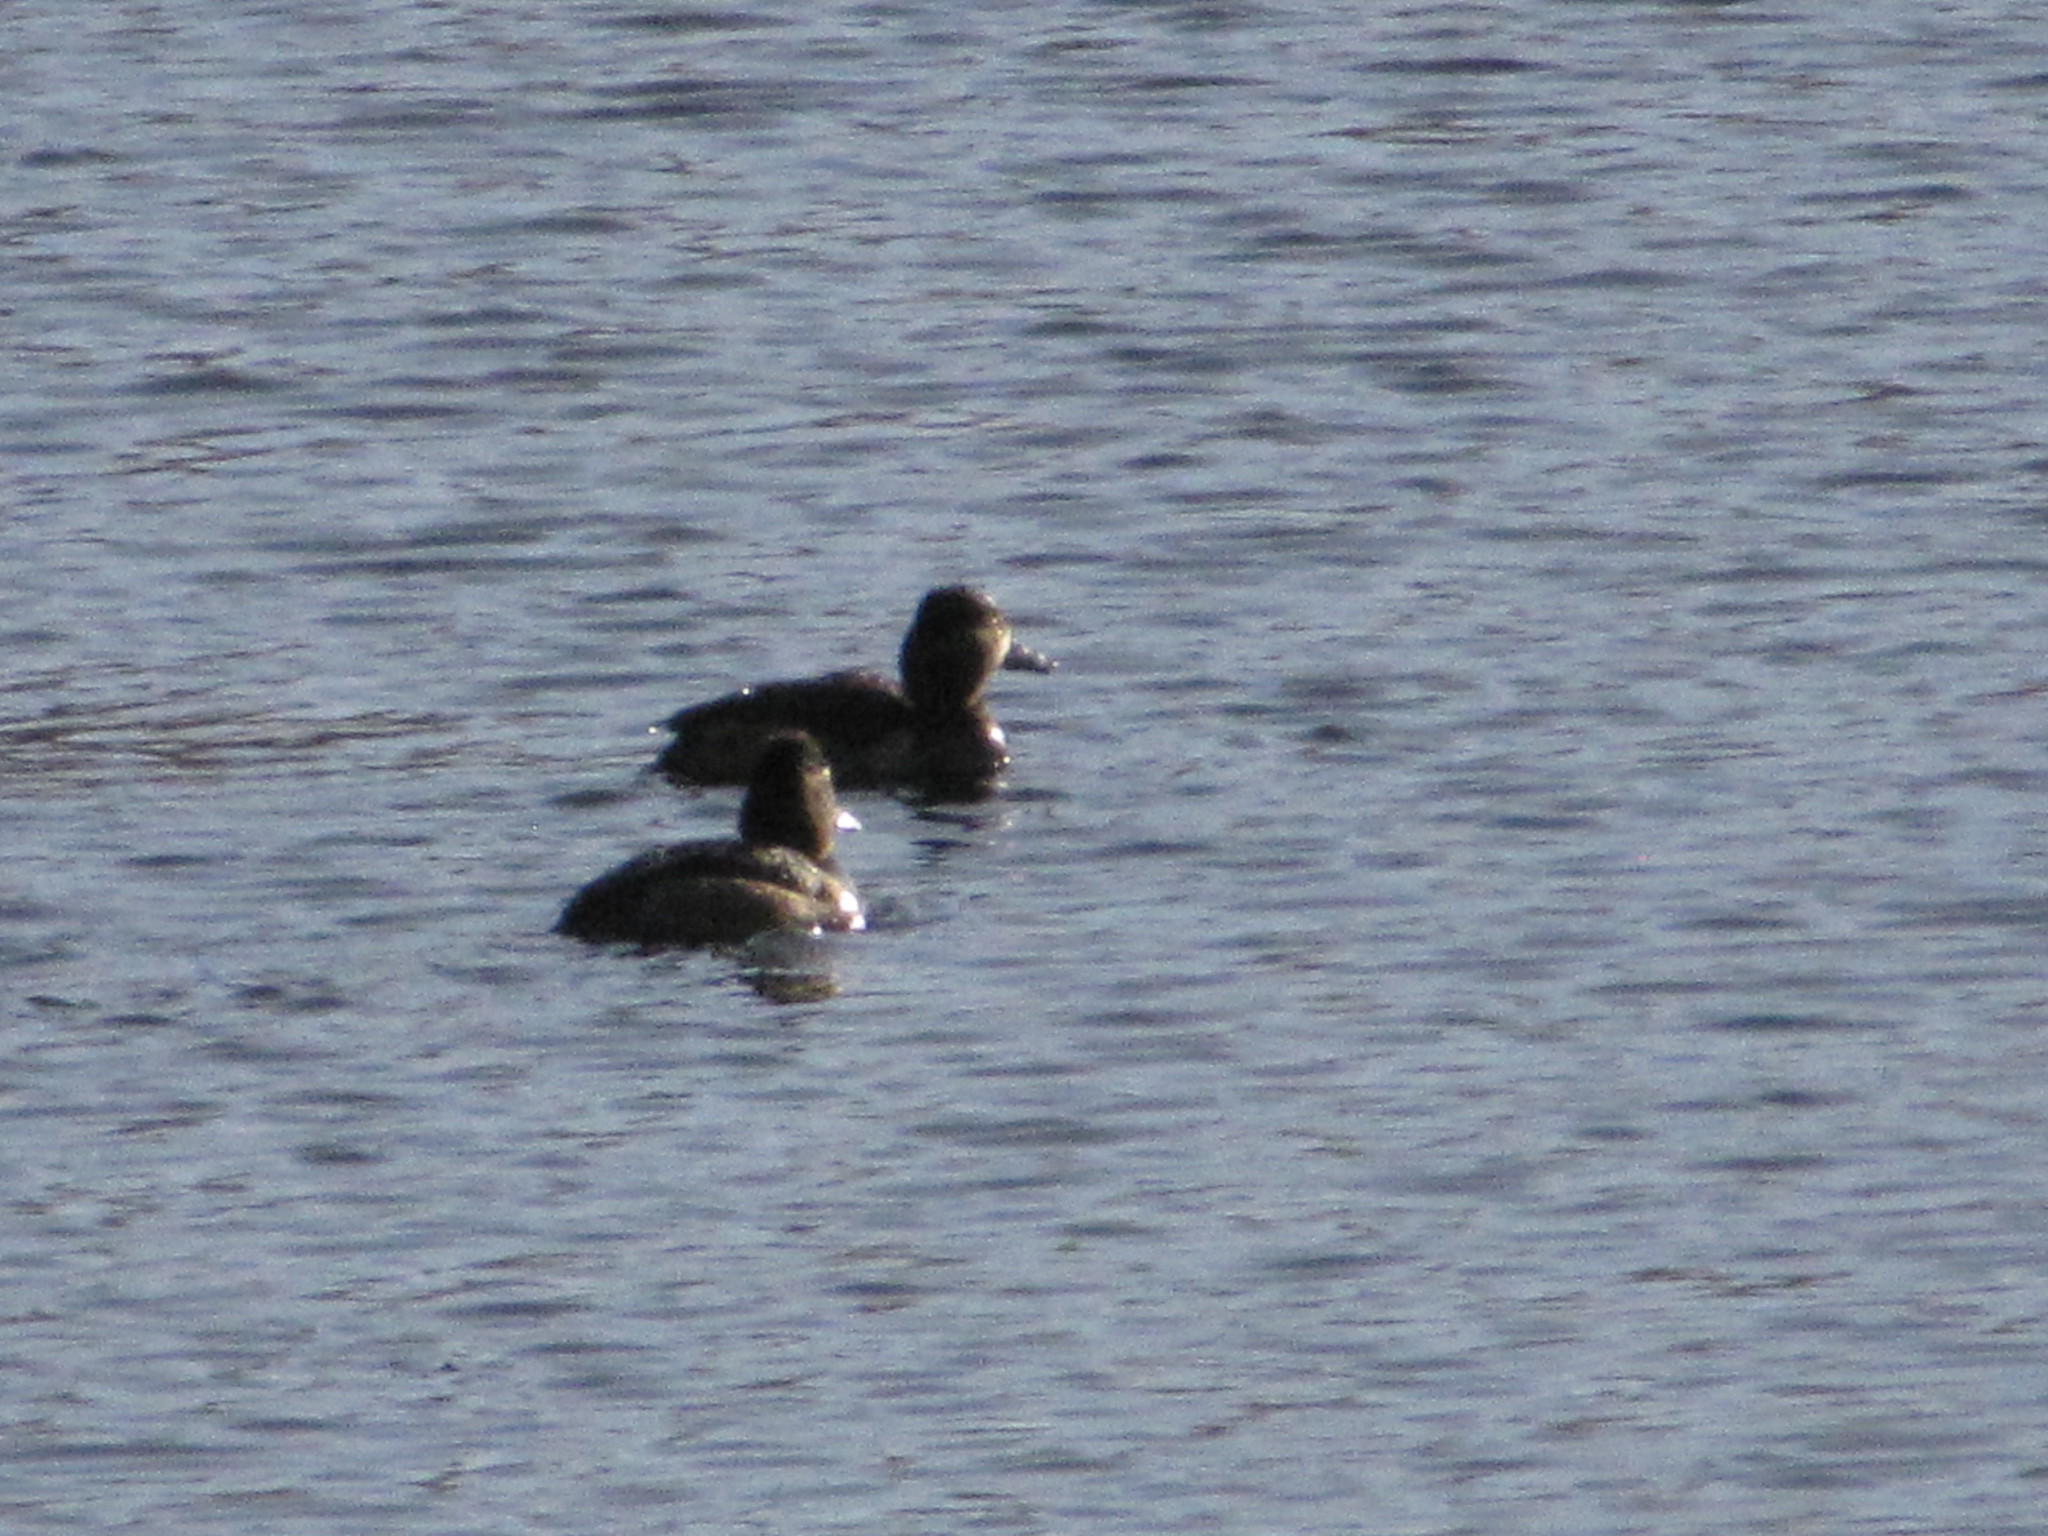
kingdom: Animalia
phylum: Chordata
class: Aves
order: Anseriformes
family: Anatidae
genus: Aythya
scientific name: Aythya collaris
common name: Ring-necked duck
